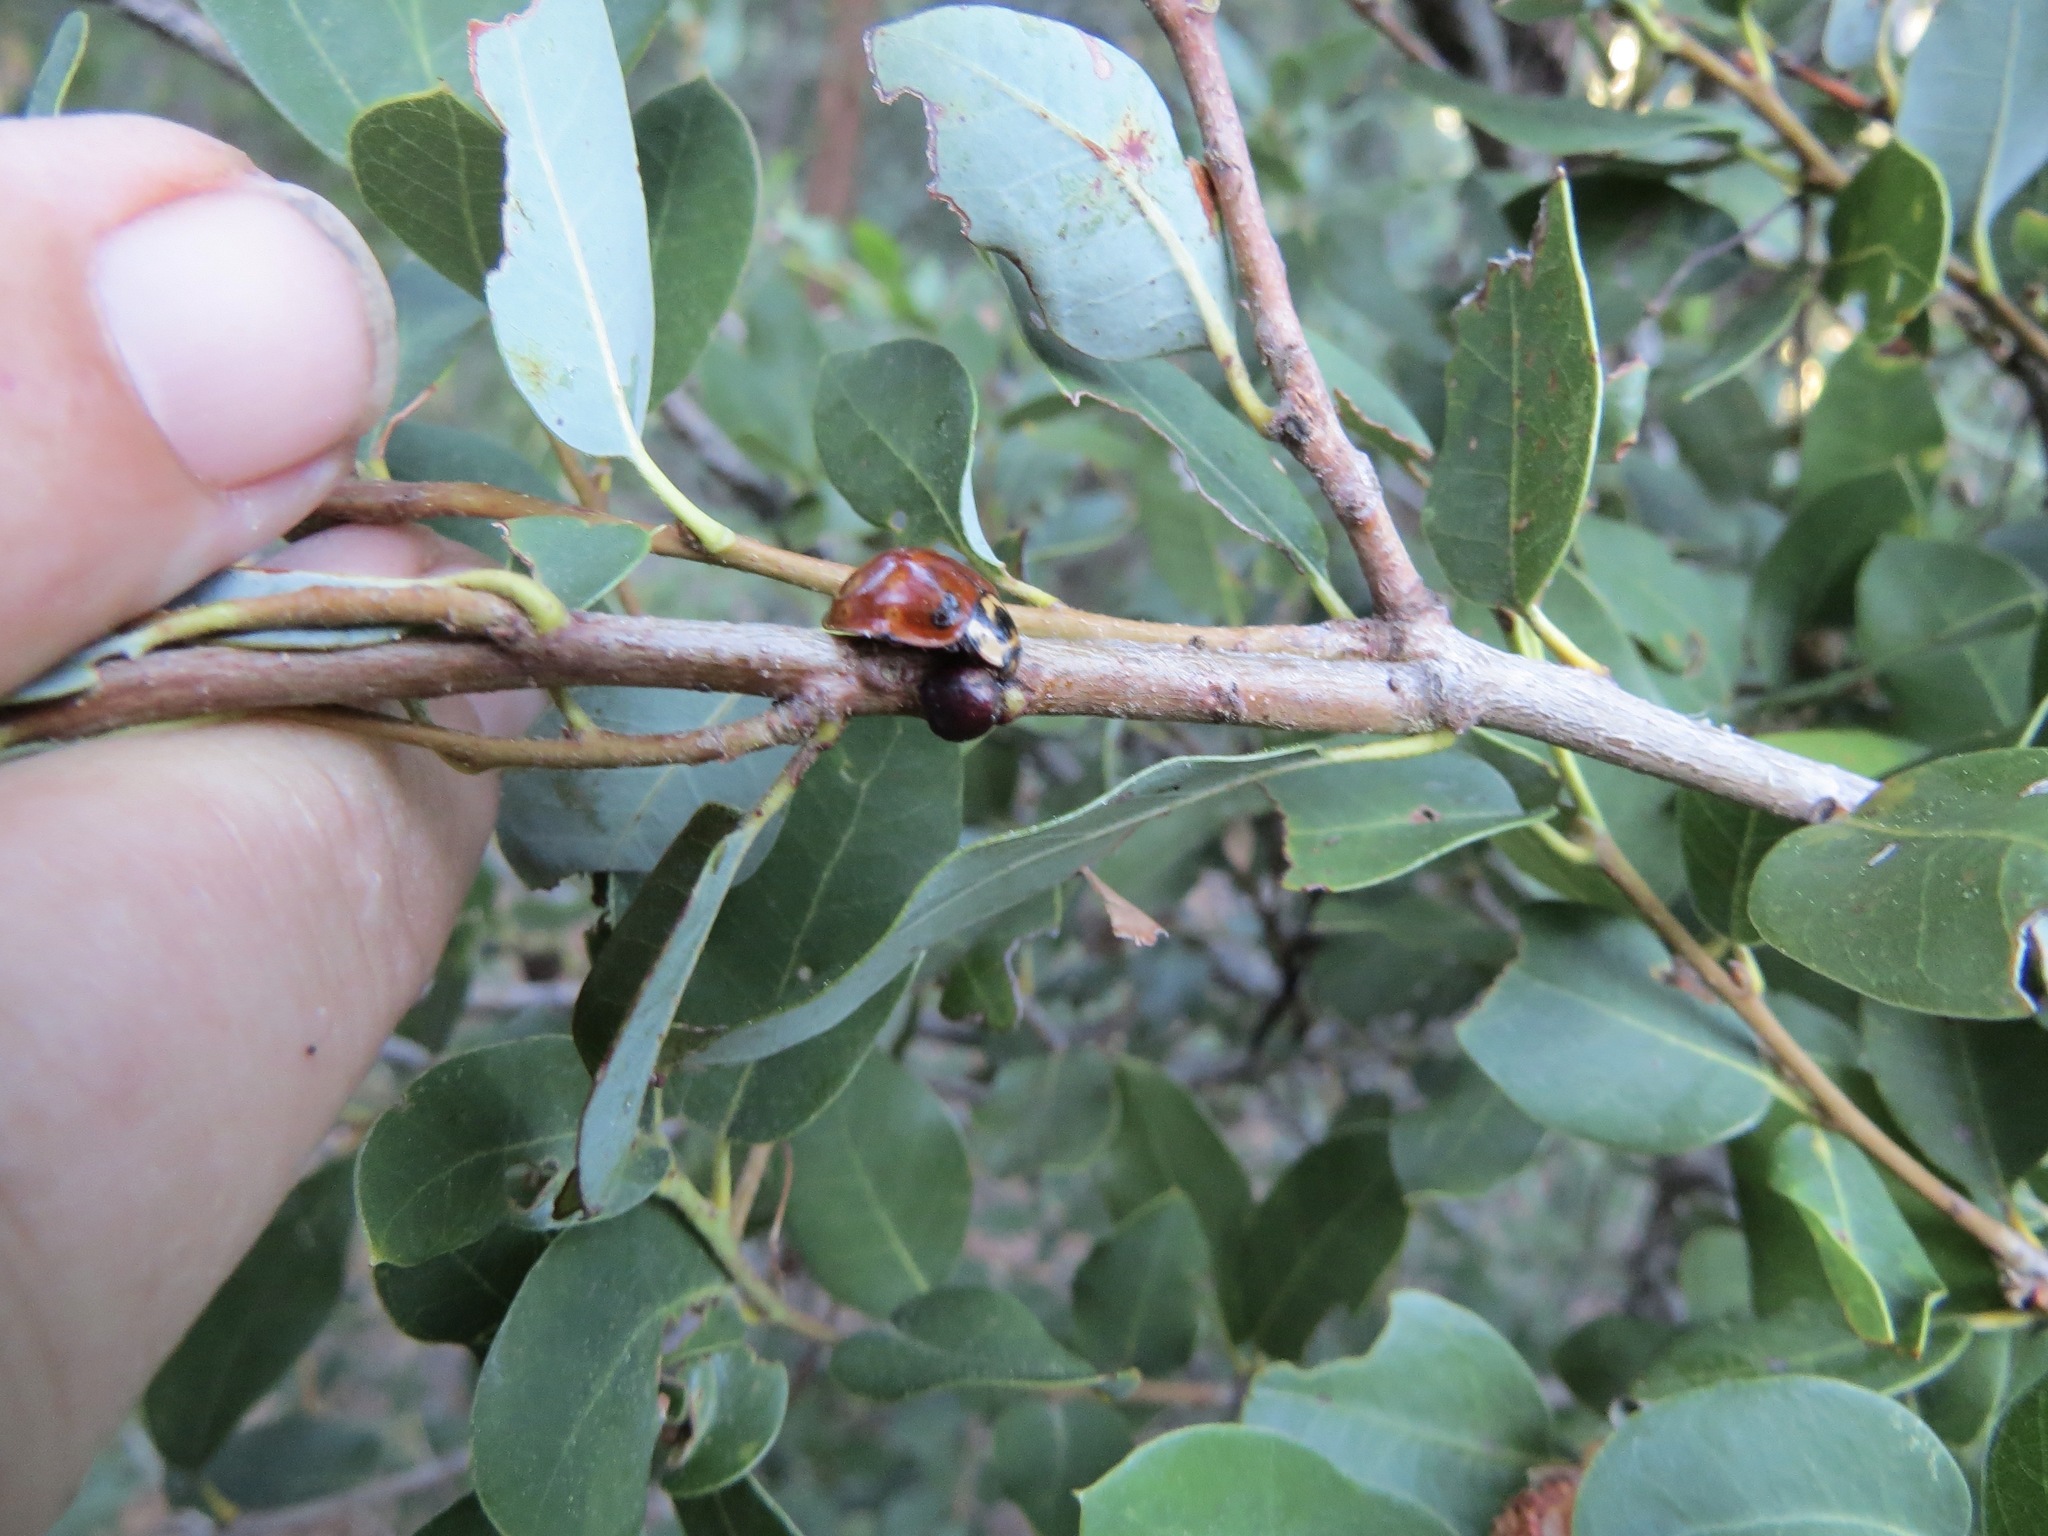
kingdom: Animalia
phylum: Arthropoda
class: Insecta
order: Coleoptera
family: Coccinellidae
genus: Anatis
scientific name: Anatis rathvoni
